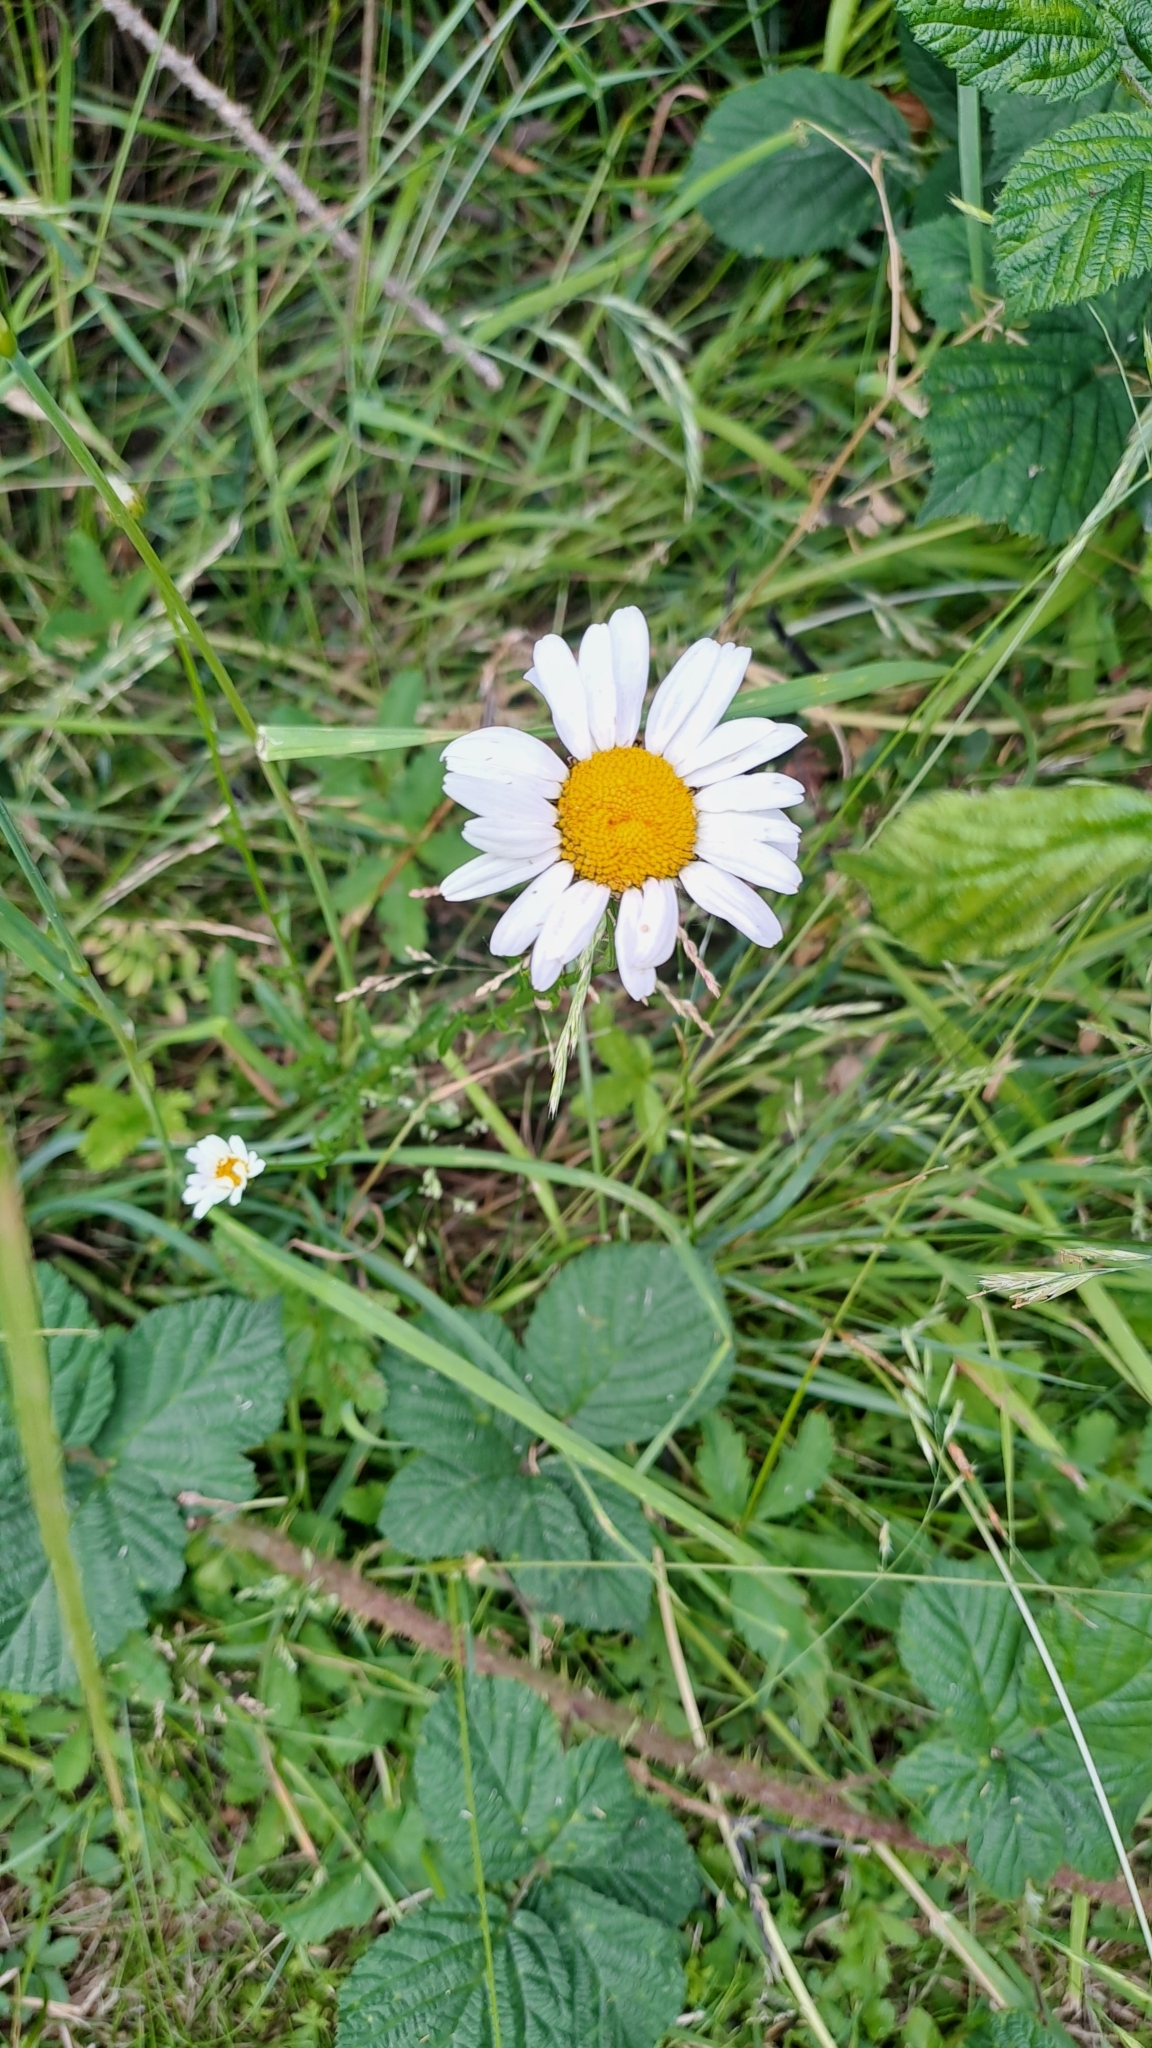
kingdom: Plantae
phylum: Tracheophyta
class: Magnoliopsida
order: Asterales
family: Asteraceae
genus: Bellis
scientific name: Bellis perennis
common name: Lawndaisy
